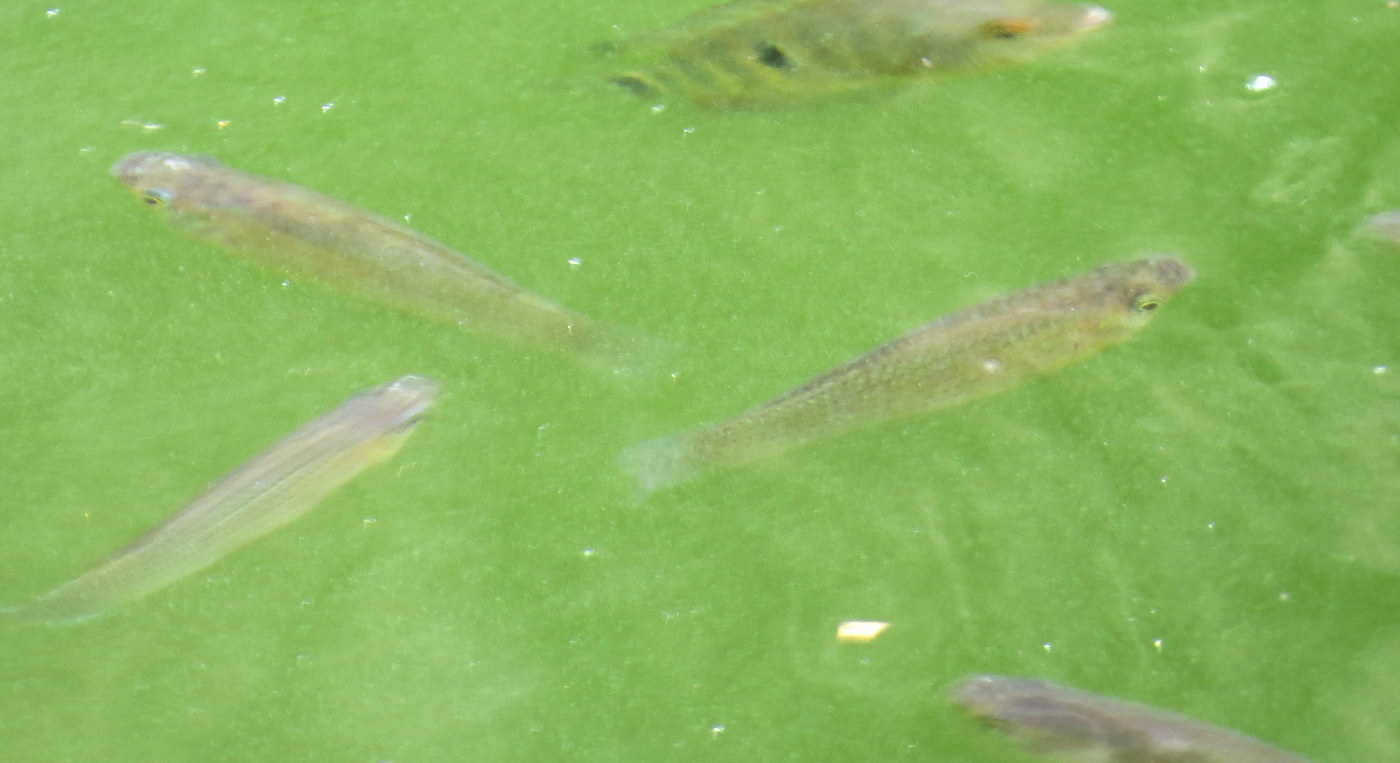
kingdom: Animalia
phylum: Chordata
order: Cyprinodontiformes
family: Poeciliidae
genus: Poecilia
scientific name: Poecilia latipinna
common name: Sailfin molly
